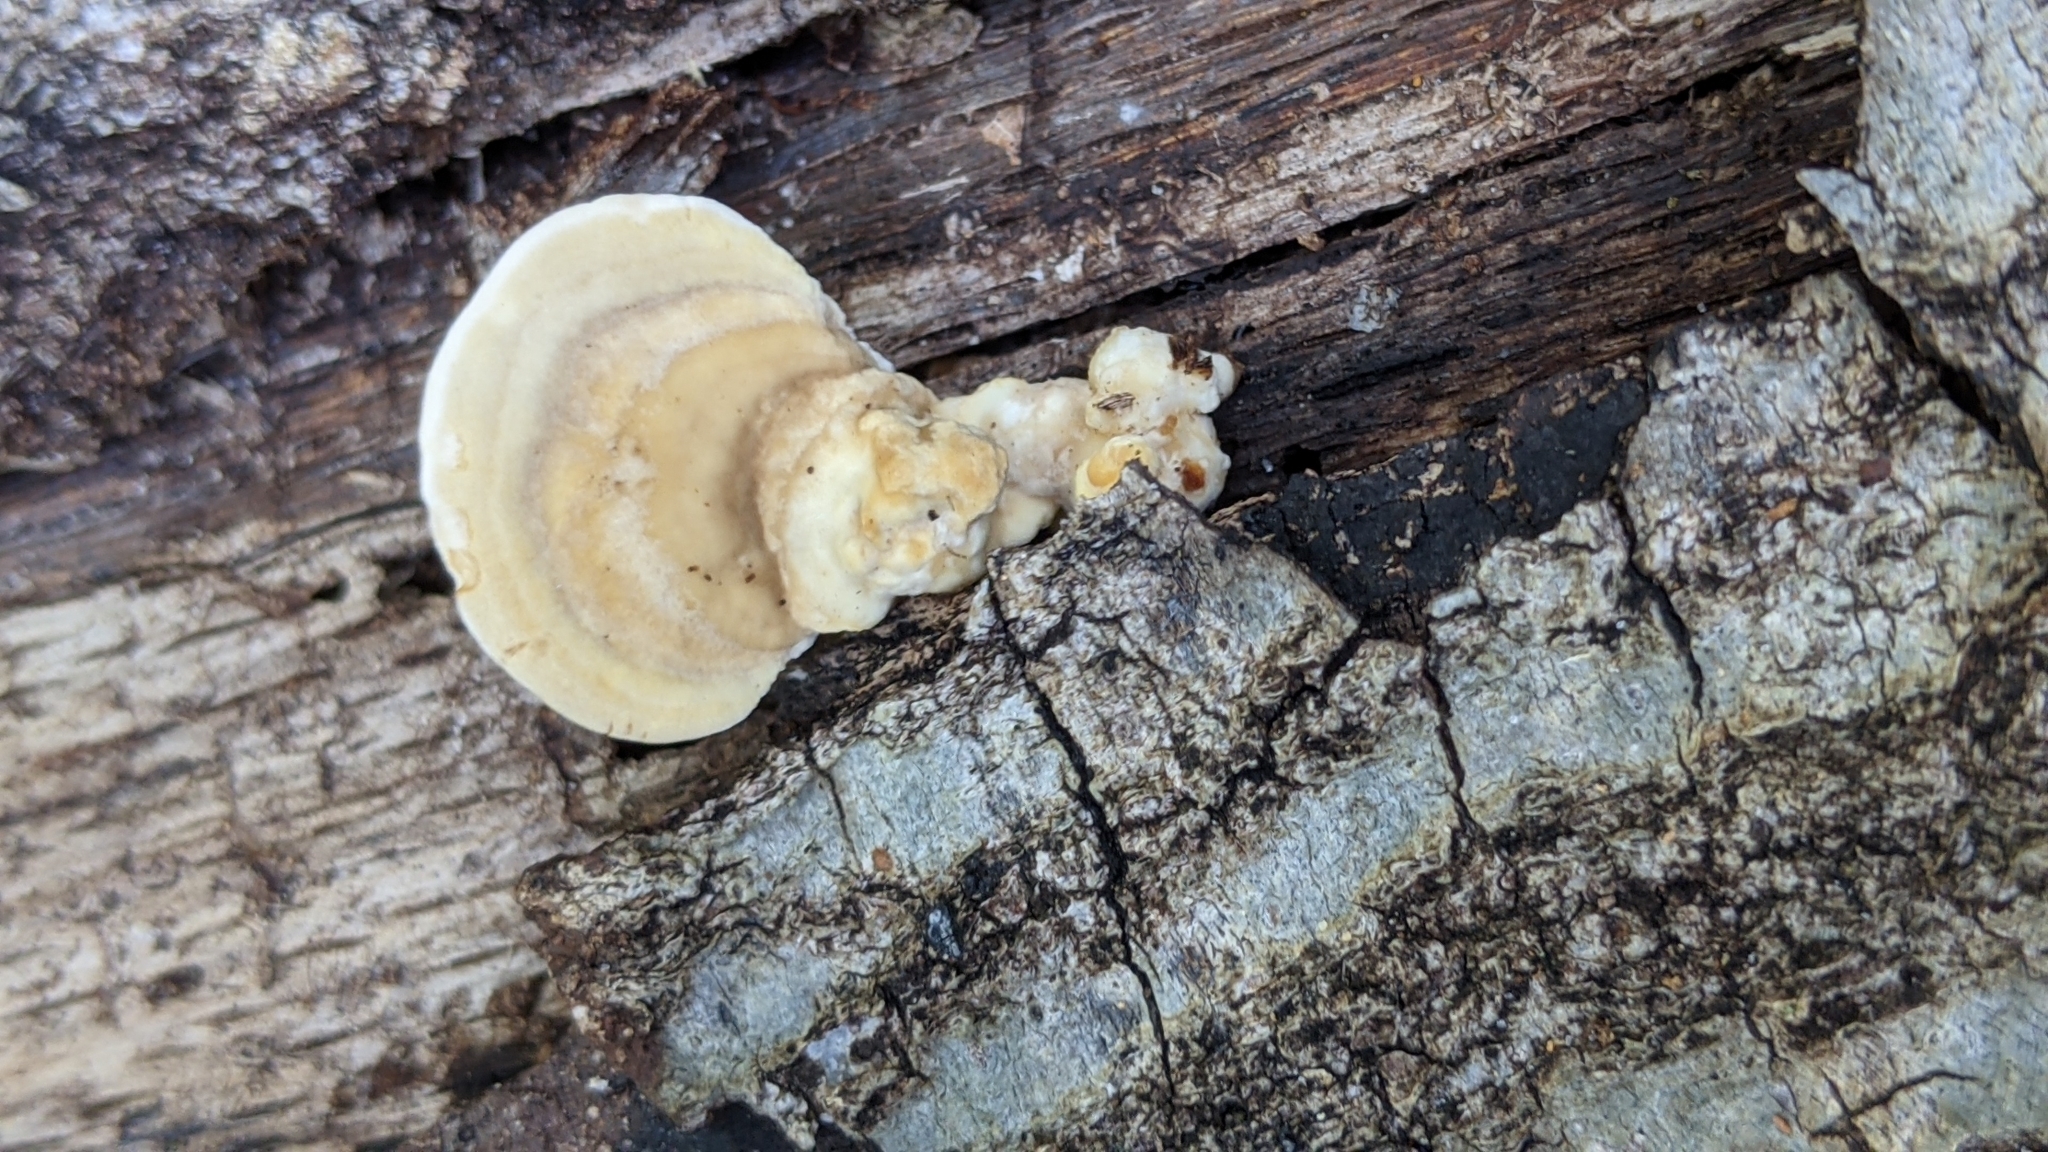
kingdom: Fungi
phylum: Basidiomycota
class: Agaricomycetes
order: Polyporales
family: Polyporaceae
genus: Trametes
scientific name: Trametes lactinea
